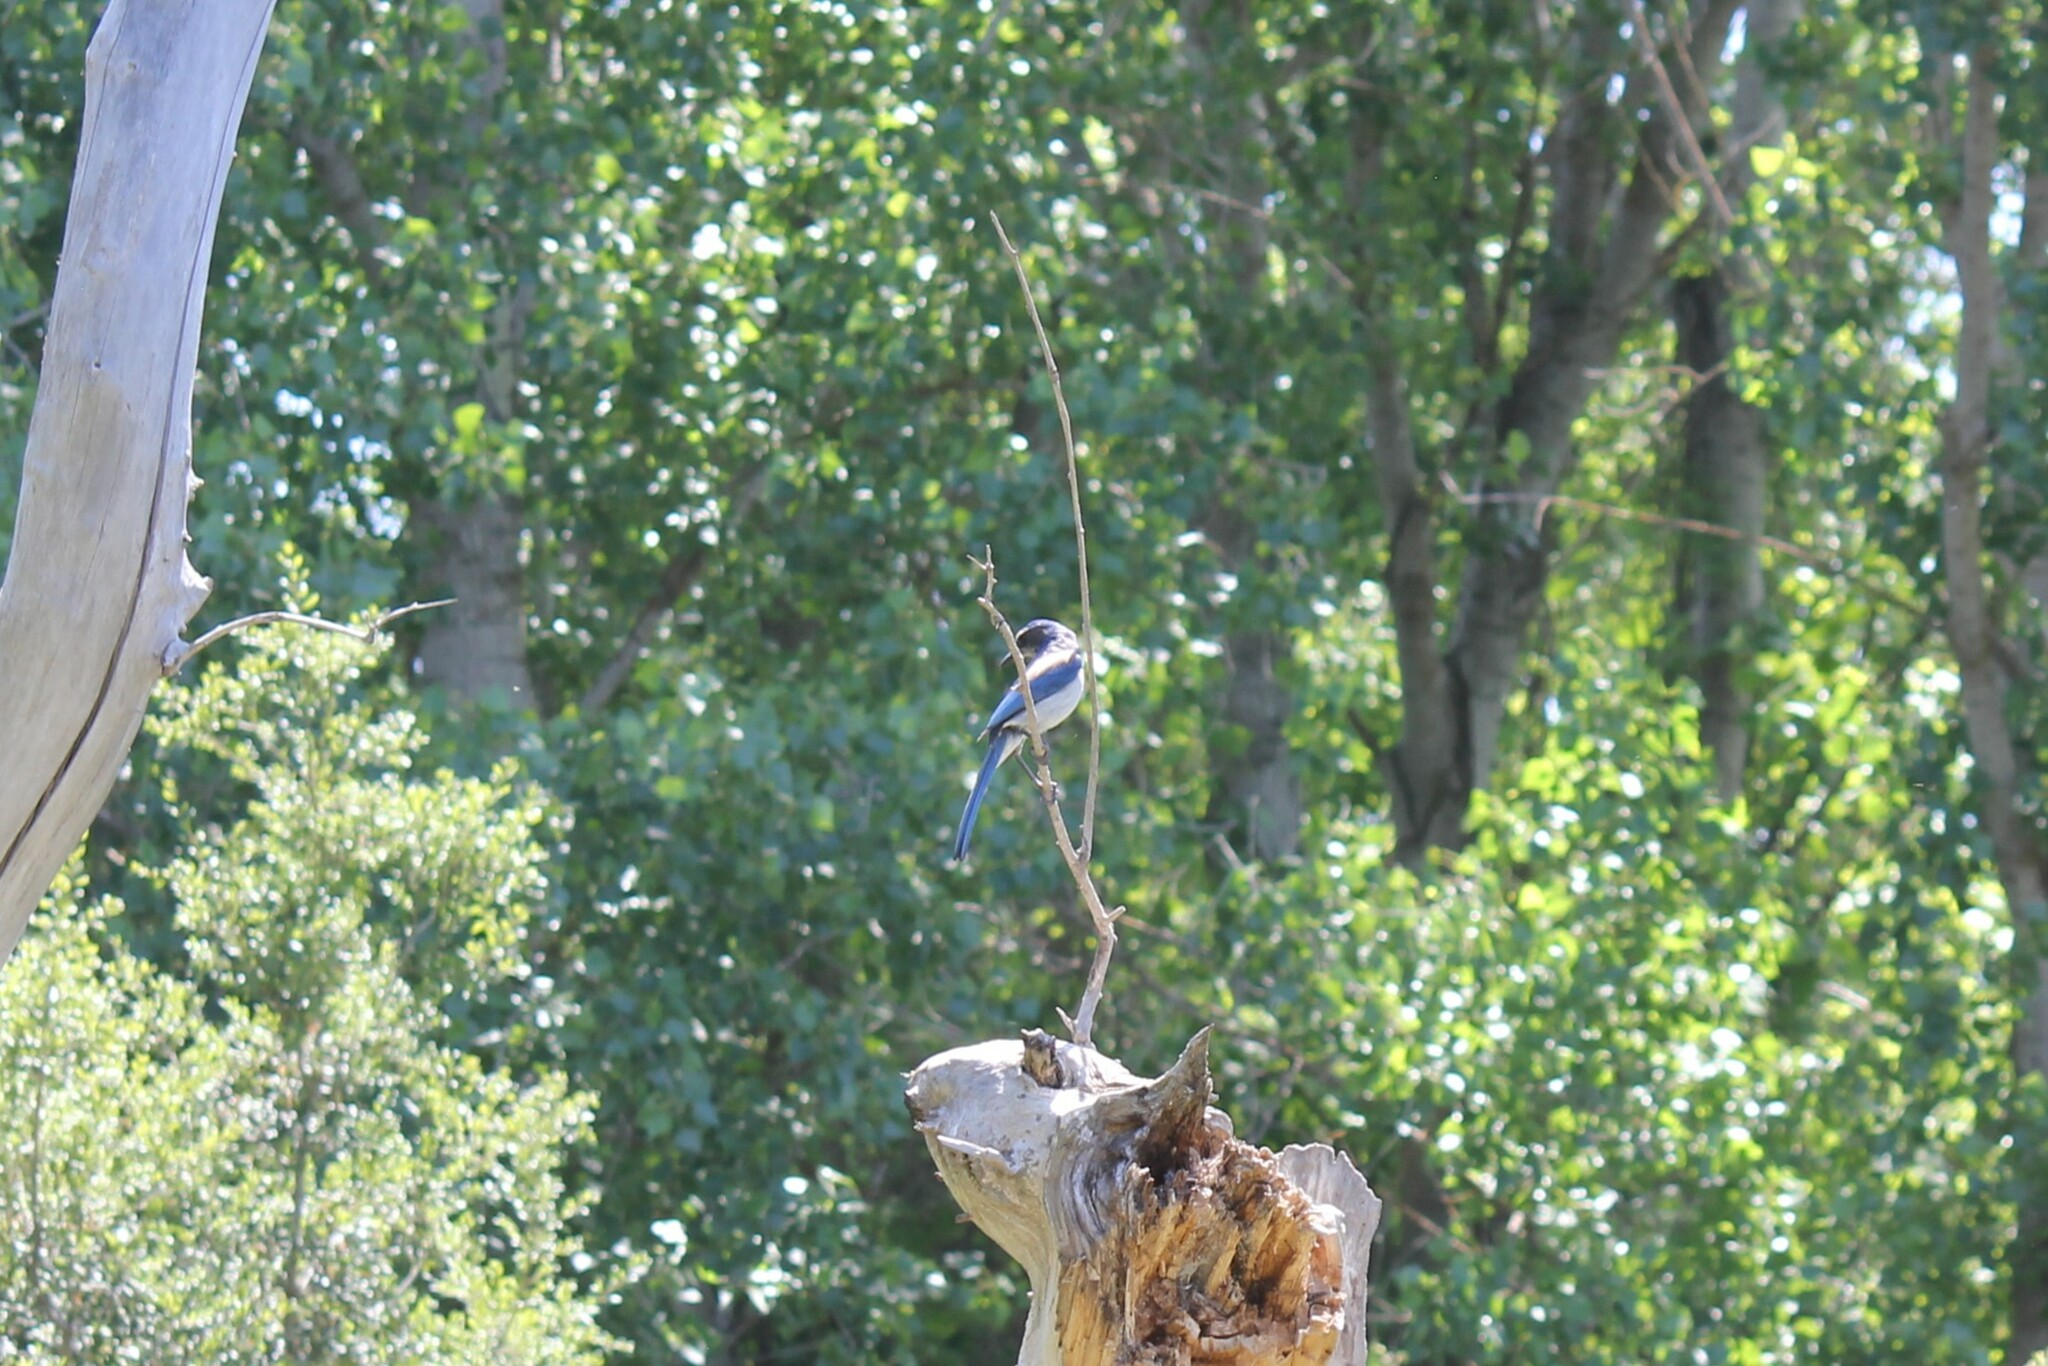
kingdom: Animalia
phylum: Chordata
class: Aves
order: Passeriformes
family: Corvidae
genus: Aphelocoma
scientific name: Aphelocoma californica
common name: California scrub-jay
